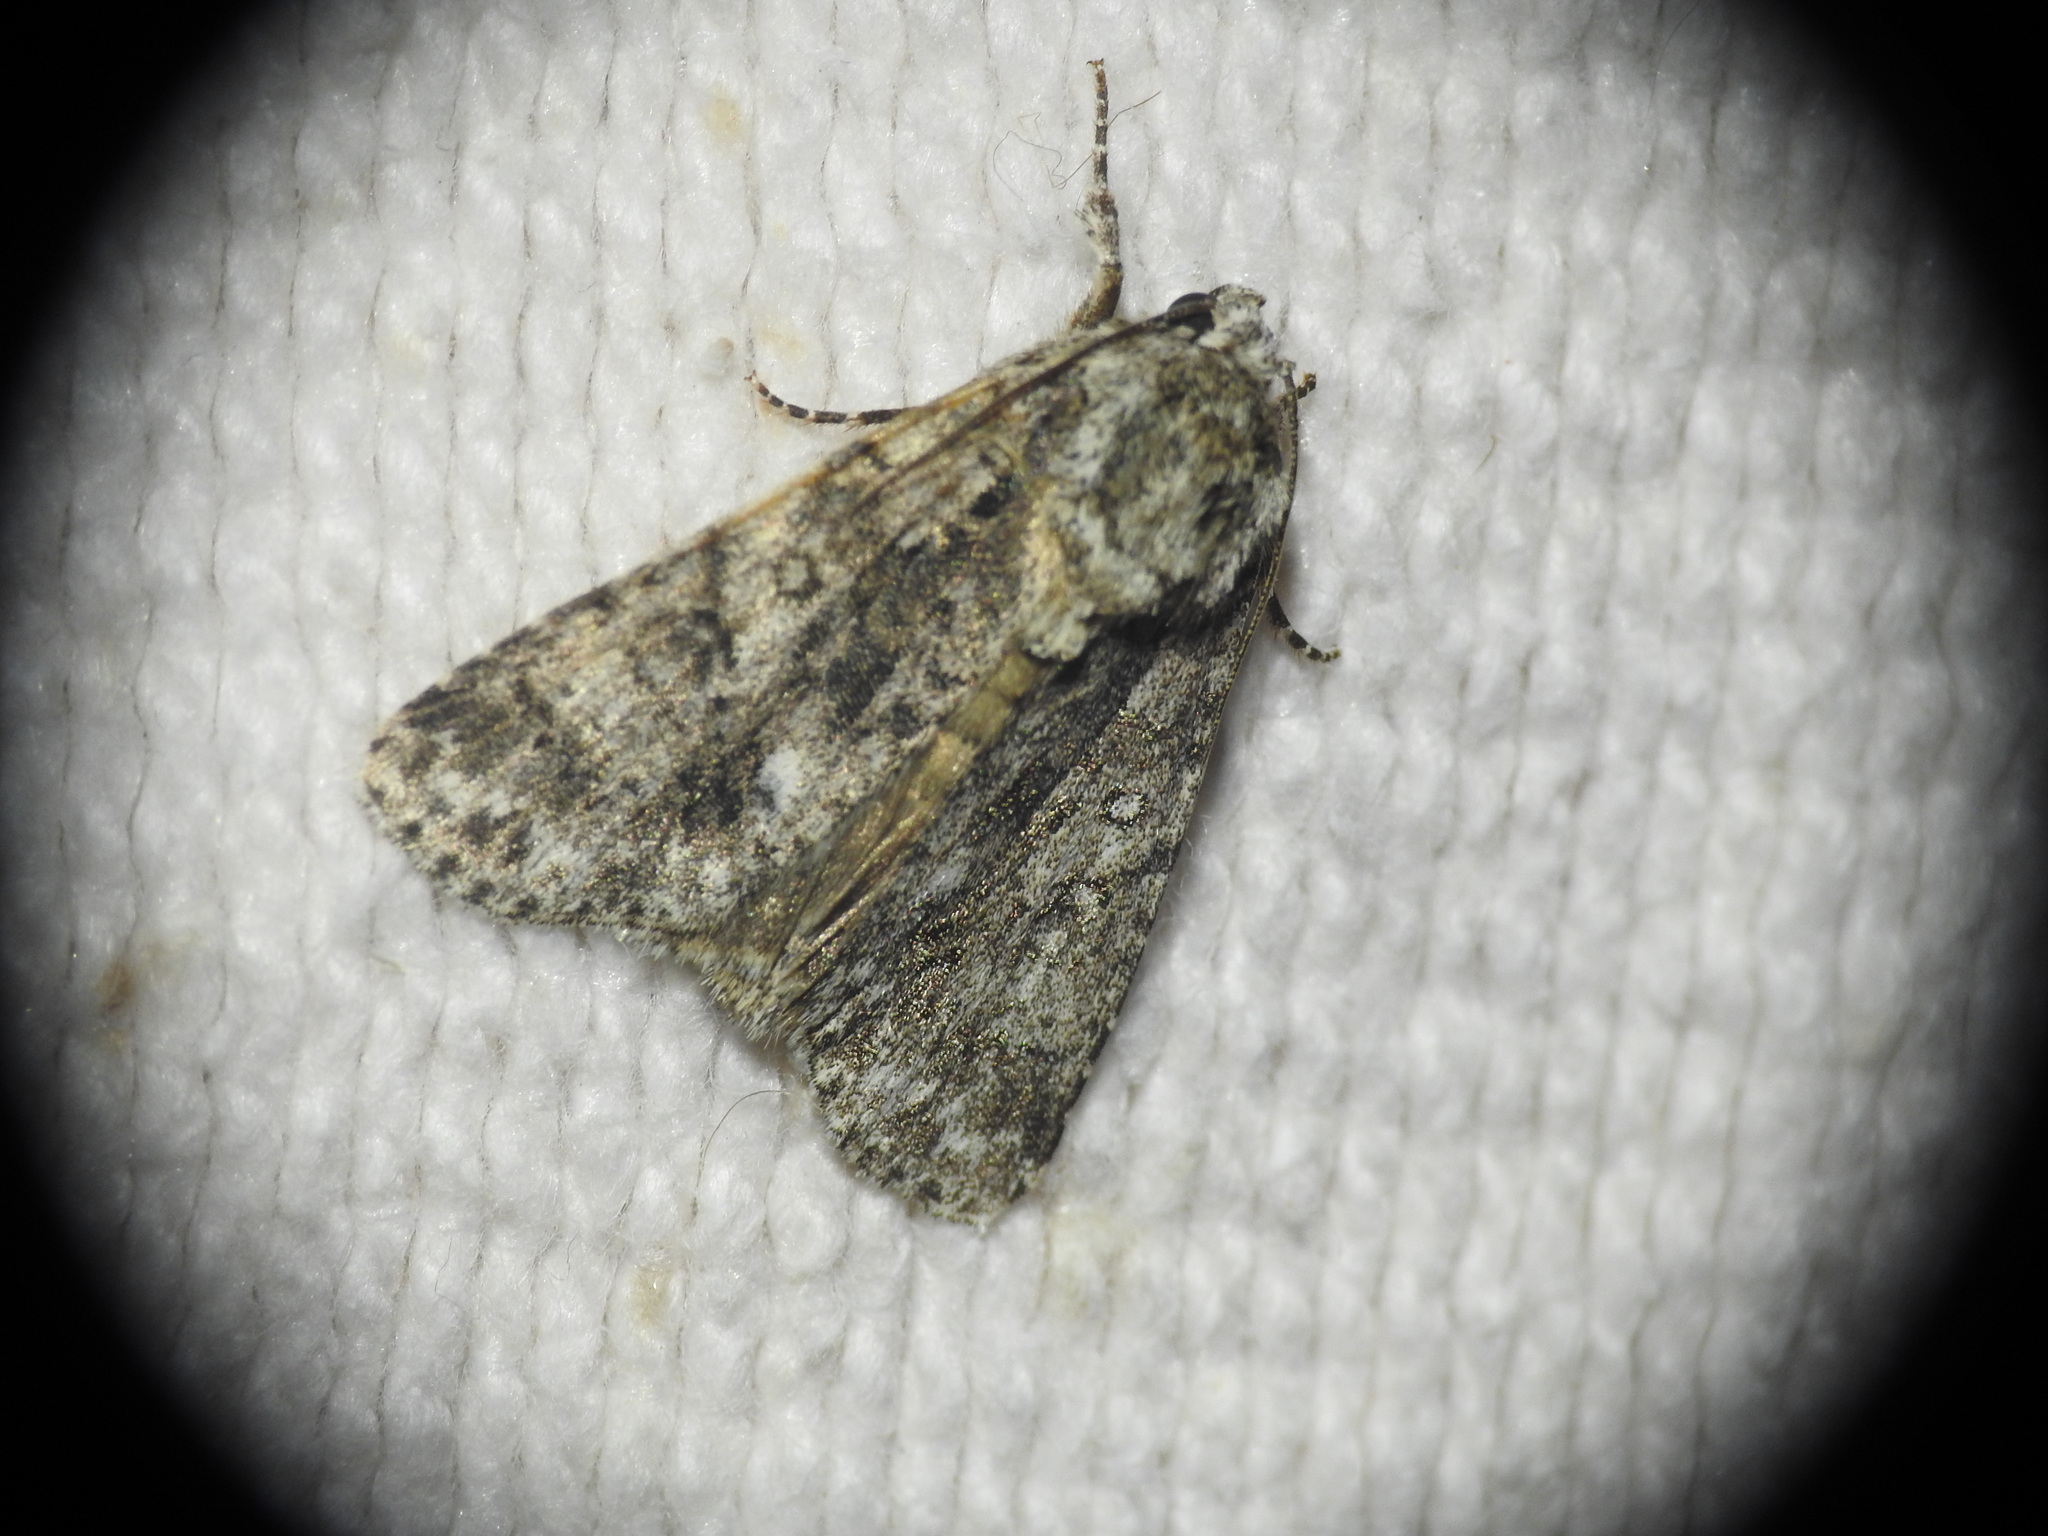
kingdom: Animalia
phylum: Arthropoda
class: Insecta
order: Lepidoptera
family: Noctuidae
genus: Acronicta
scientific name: Acronicta rumicis
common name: Knot grass
